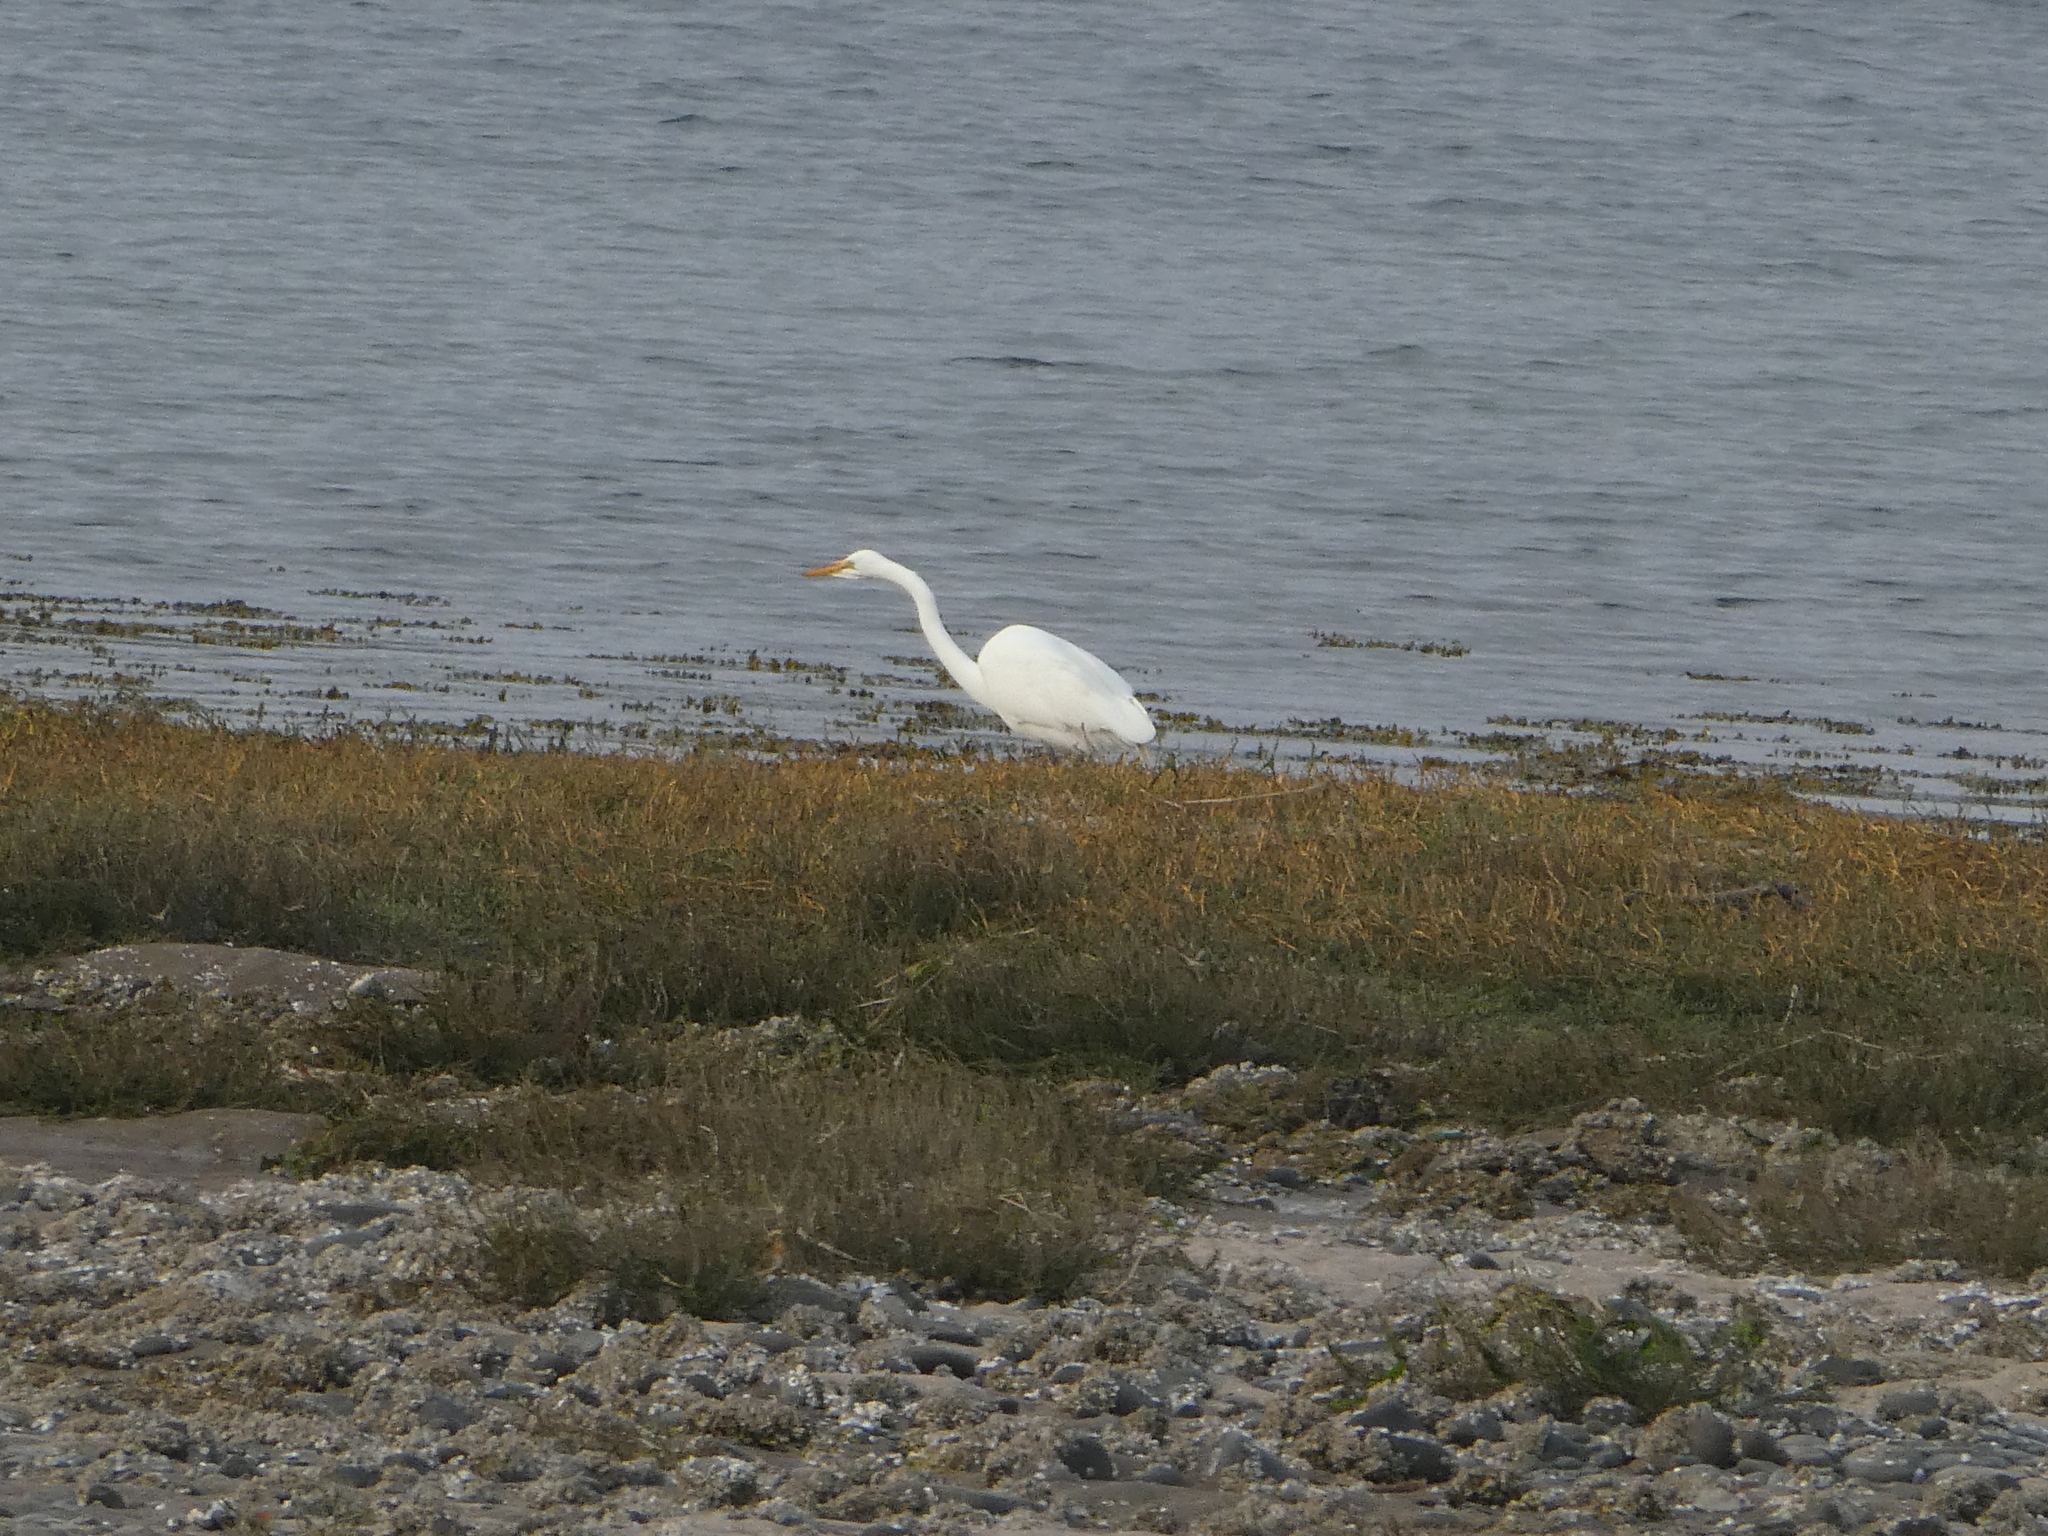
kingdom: Animalia
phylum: Chordata
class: Aves
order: Pelecaniformes
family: Ardeidae
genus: Ardea
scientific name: Ardea alba
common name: Great egret
